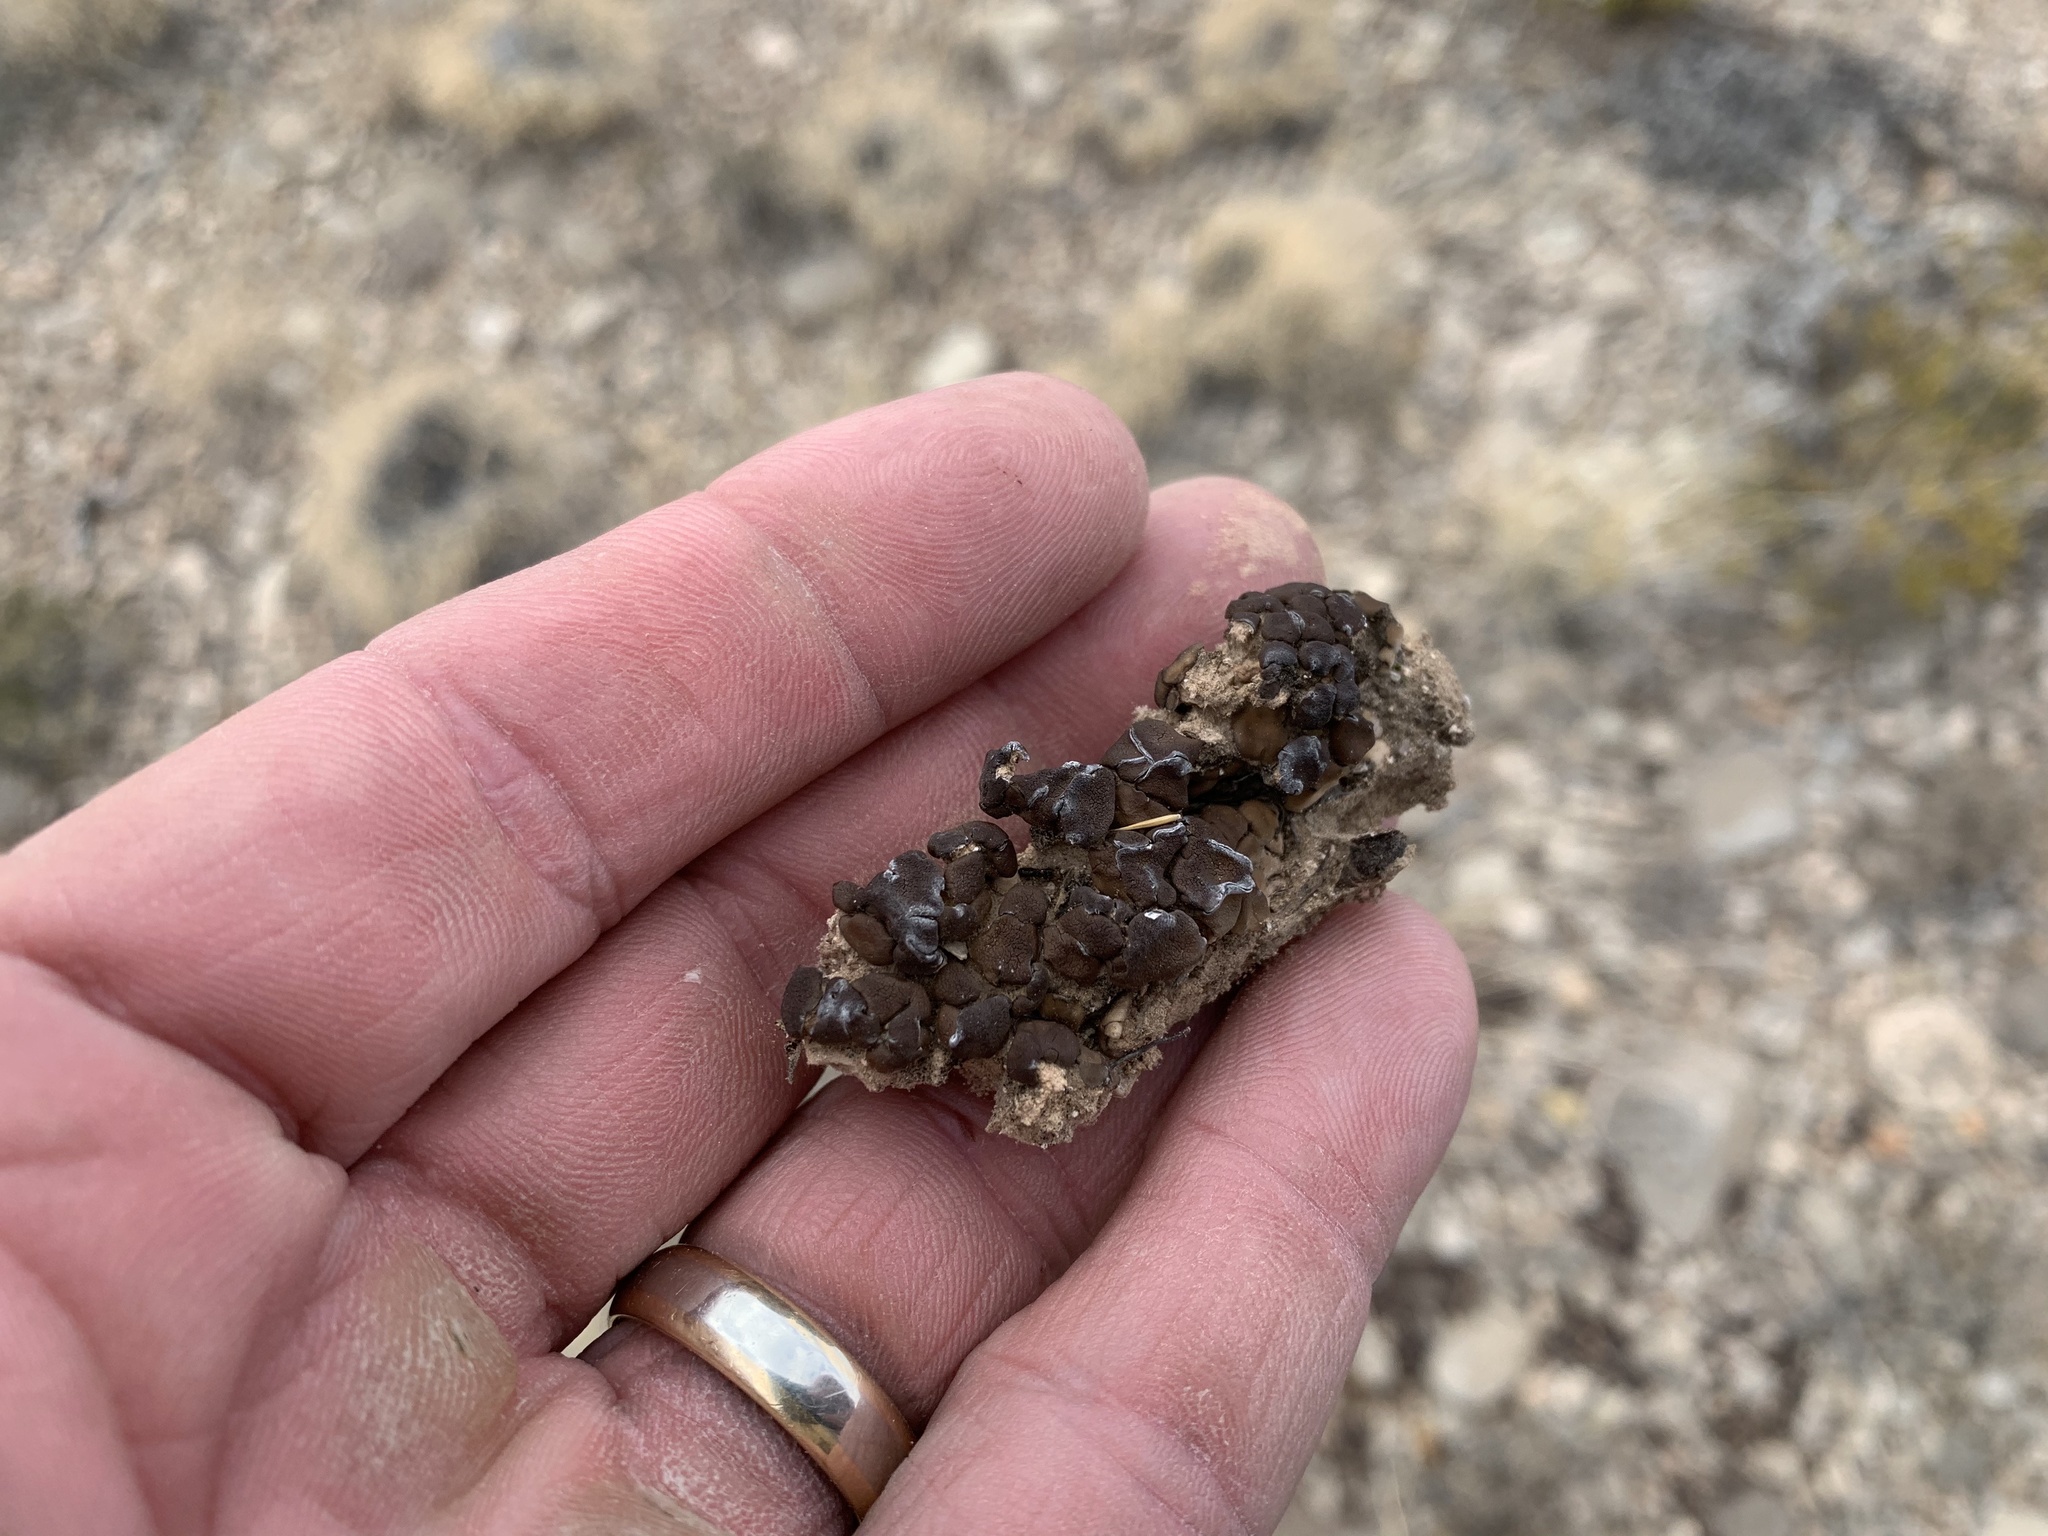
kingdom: Fungi
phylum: Ascomycota
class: Eurotiomycetes
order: Verrucariales
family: Verrucariaceae
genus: Clavascidium
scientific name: Clavascidium lacinulatum
